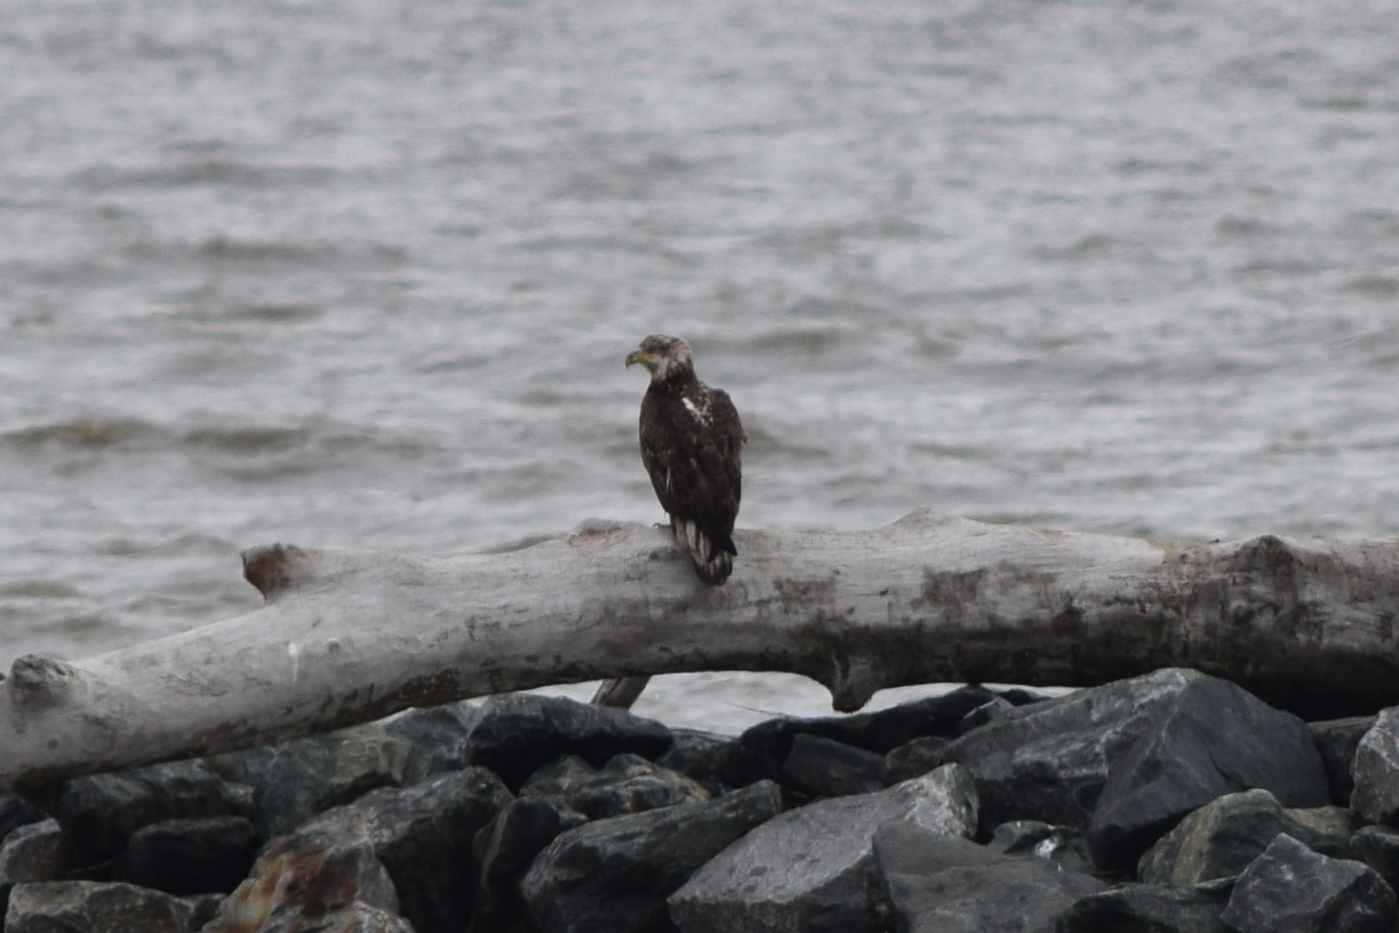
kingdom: Animalia
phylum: Chordata
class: Aves
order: Accipitriformes
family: Accipitridae
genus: Haliaeetus
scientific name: Haliaeetus leucocephalus
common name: Bald eagle
